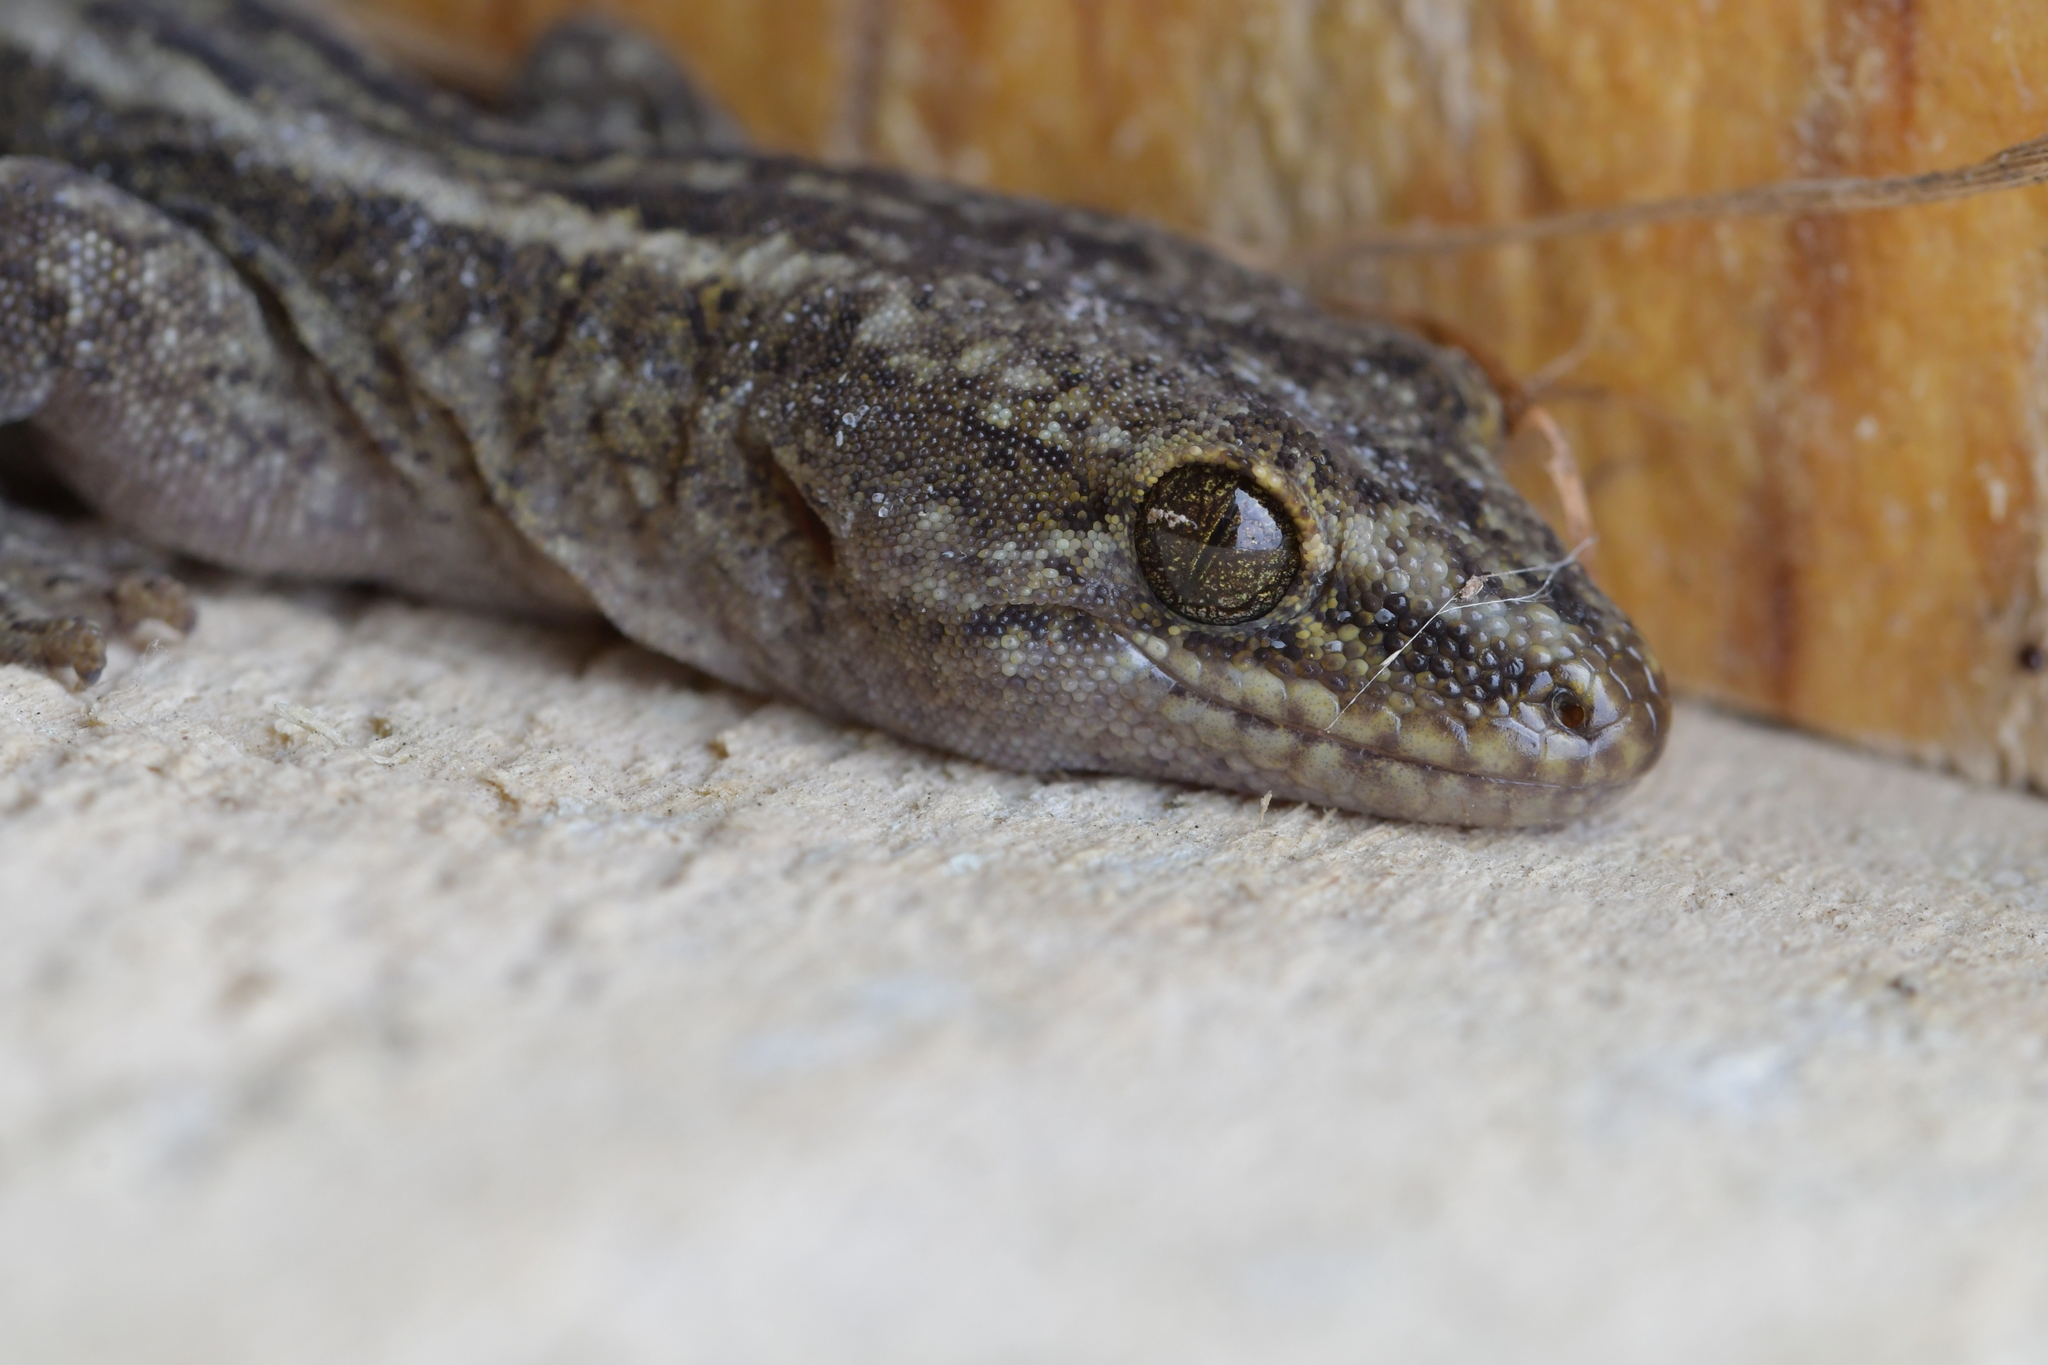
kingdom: Animalia
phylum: Chordata
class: Squamata
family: Diplodactylidae
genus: Woodworthia
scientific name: Woodworthia maculata
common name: Raukawa gecko
